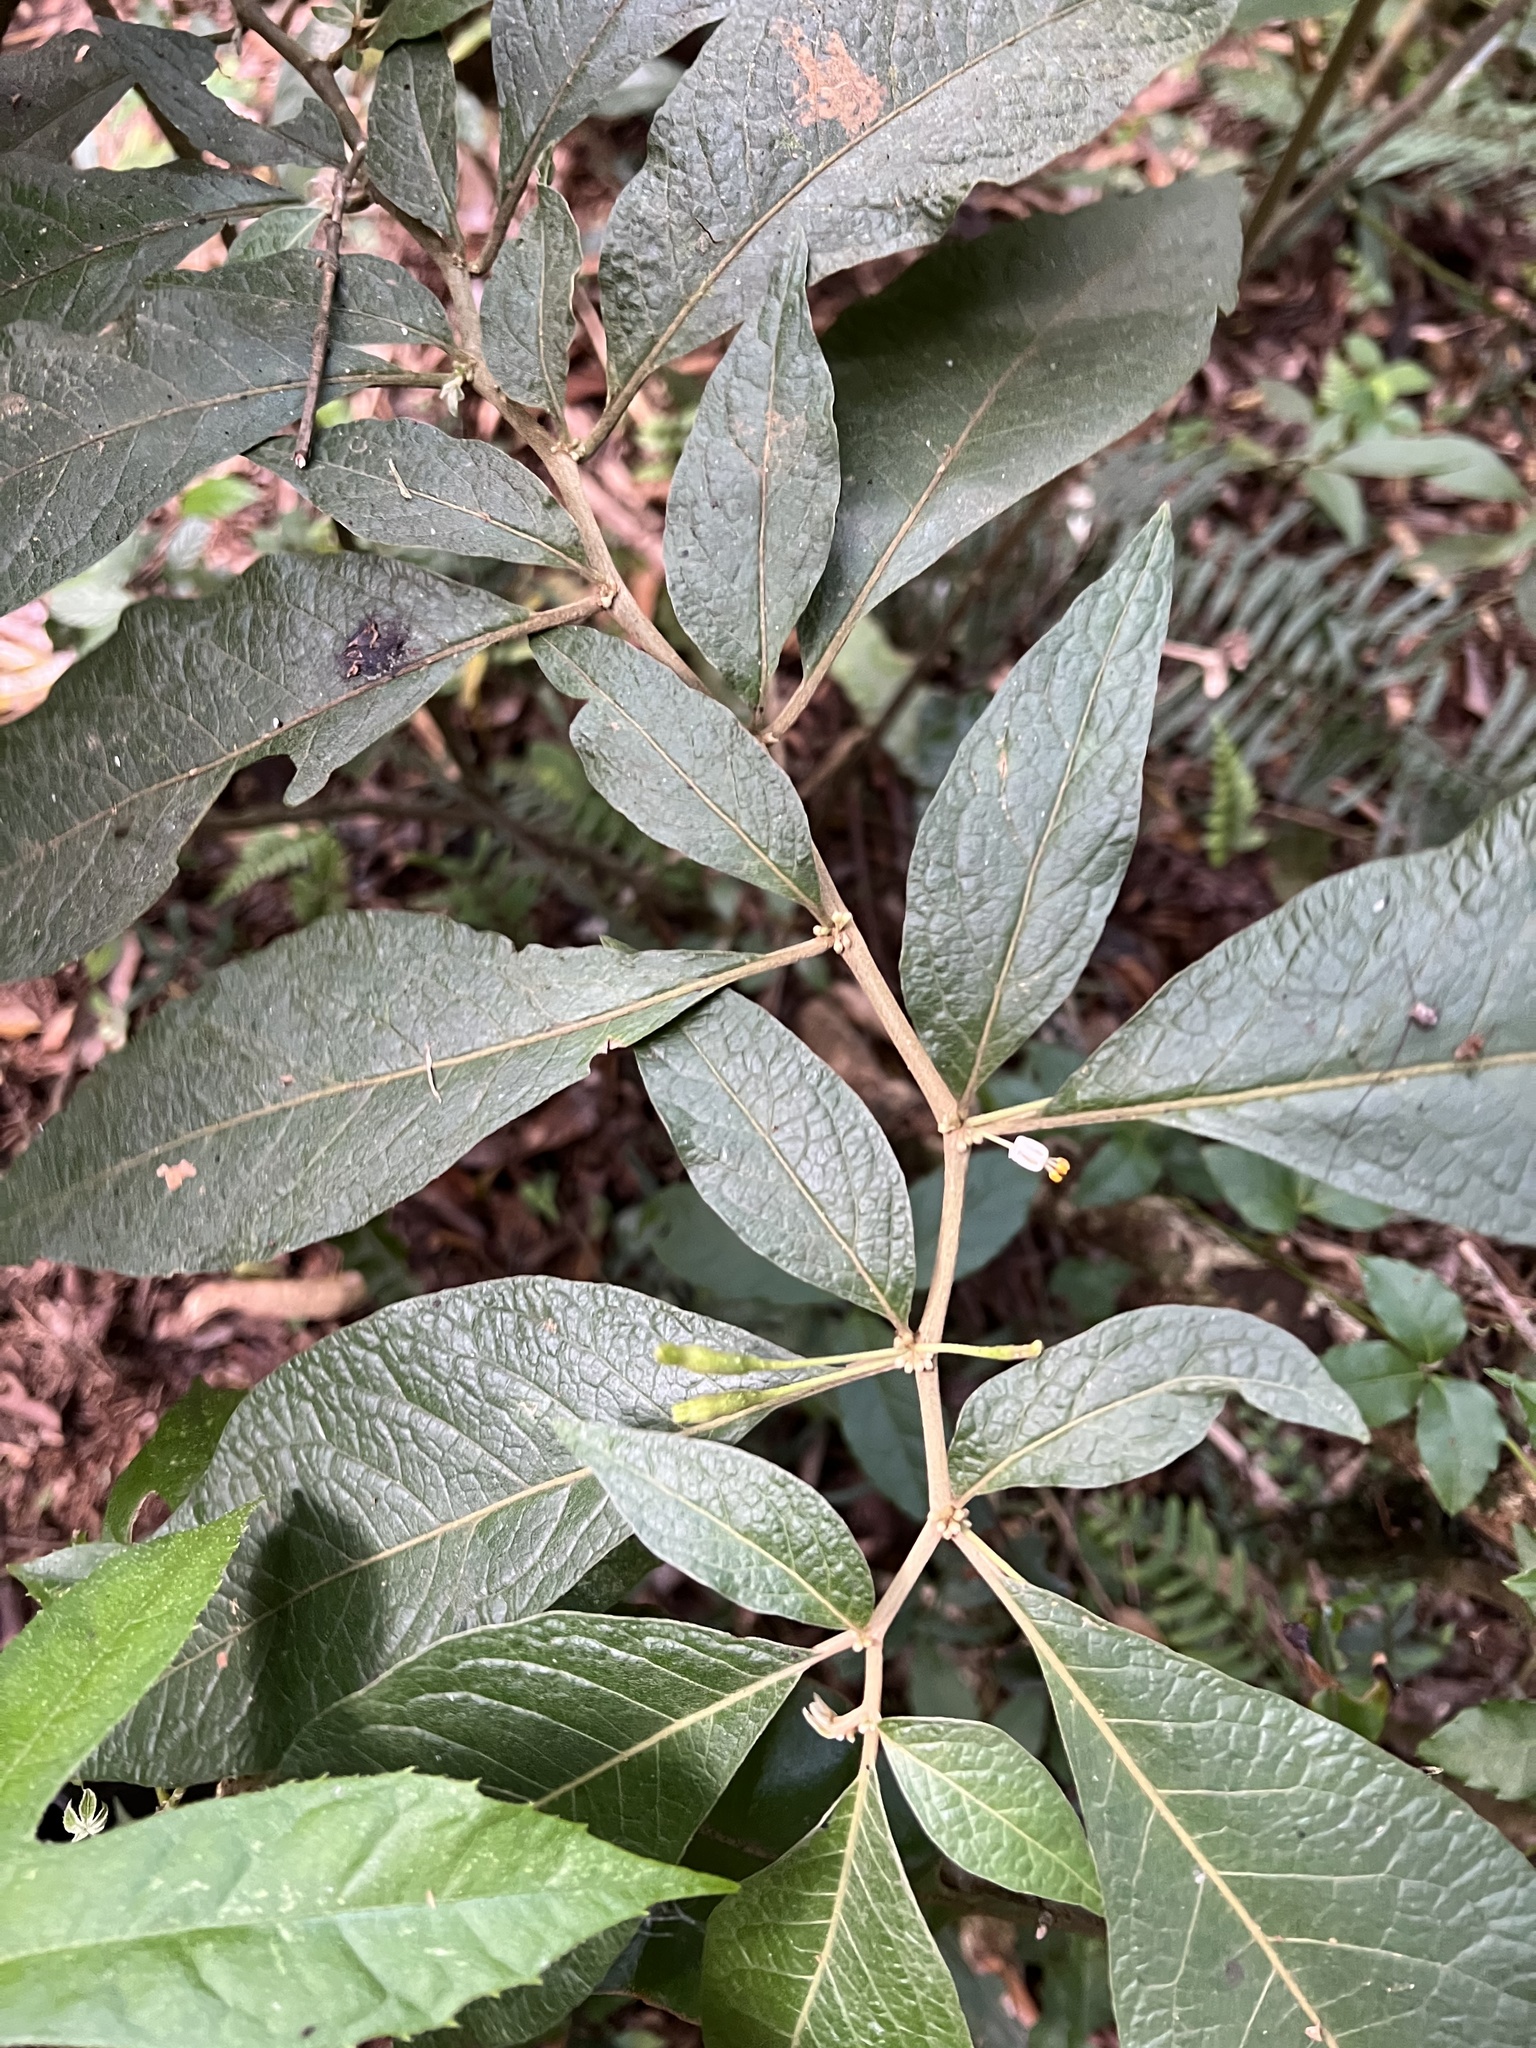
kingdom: Plantae
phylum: Tracheophyta
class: Magnoliopsida
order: Solanales
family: Solanaceae
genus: Lycianthes
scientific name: Lycianthes radiata
